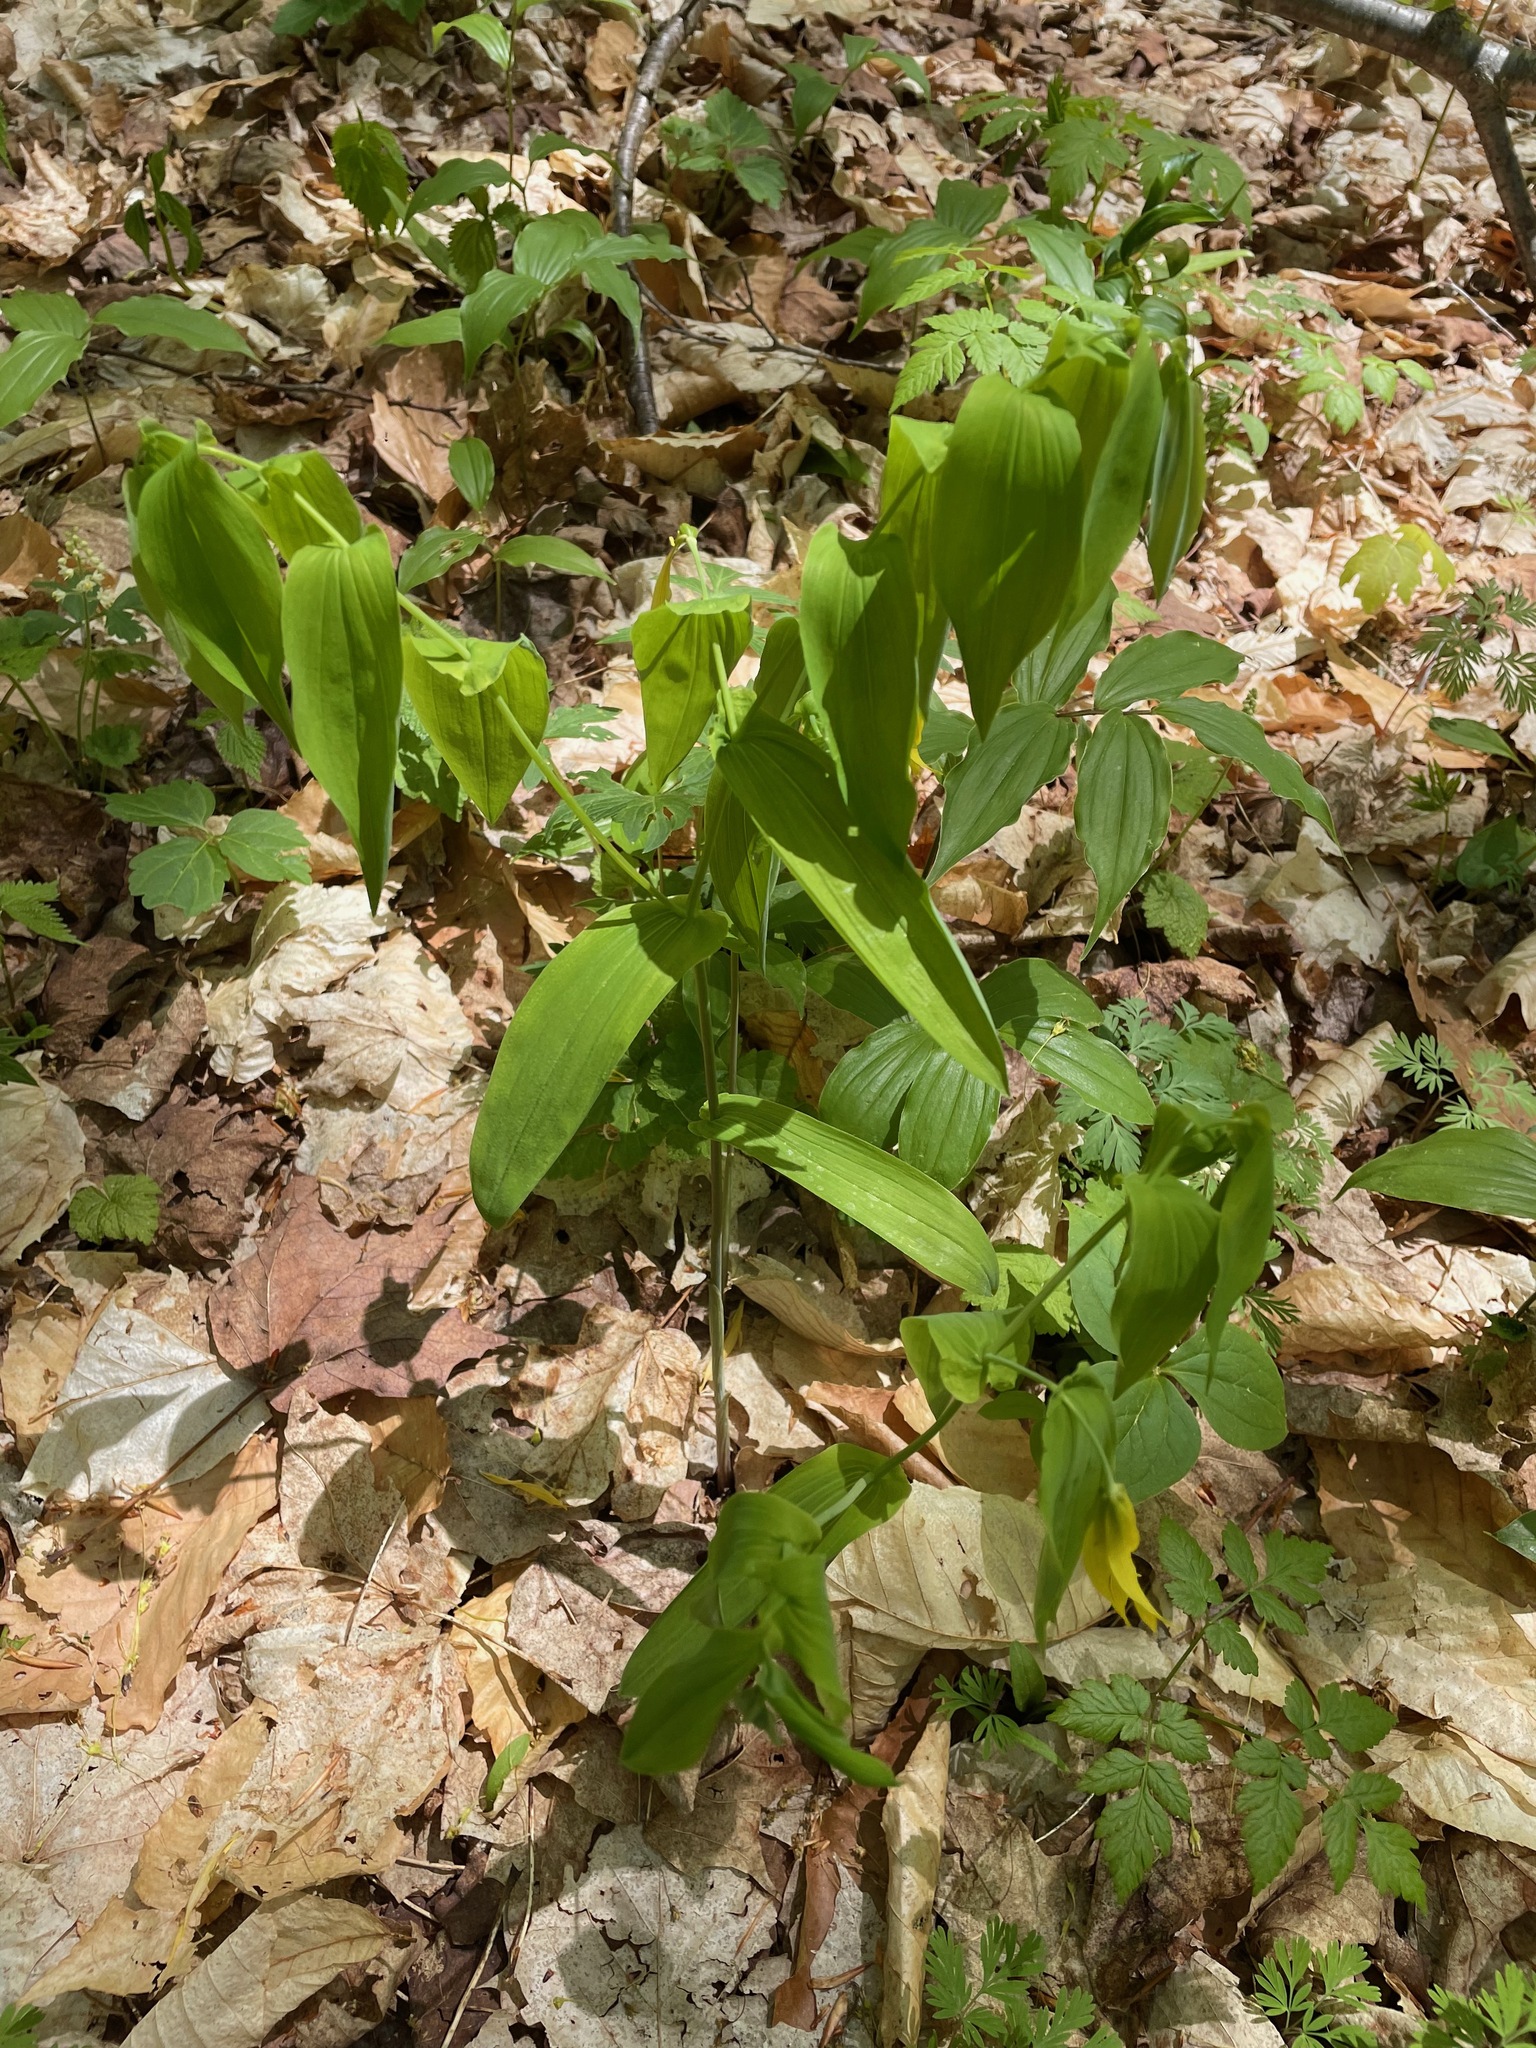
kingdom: Plantae
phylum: Tracheophyta
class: Liliopsida
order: Liliales
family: Colchicaceae
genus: Uvularia
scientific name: Uvularia grandiflora
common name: Bellwort
